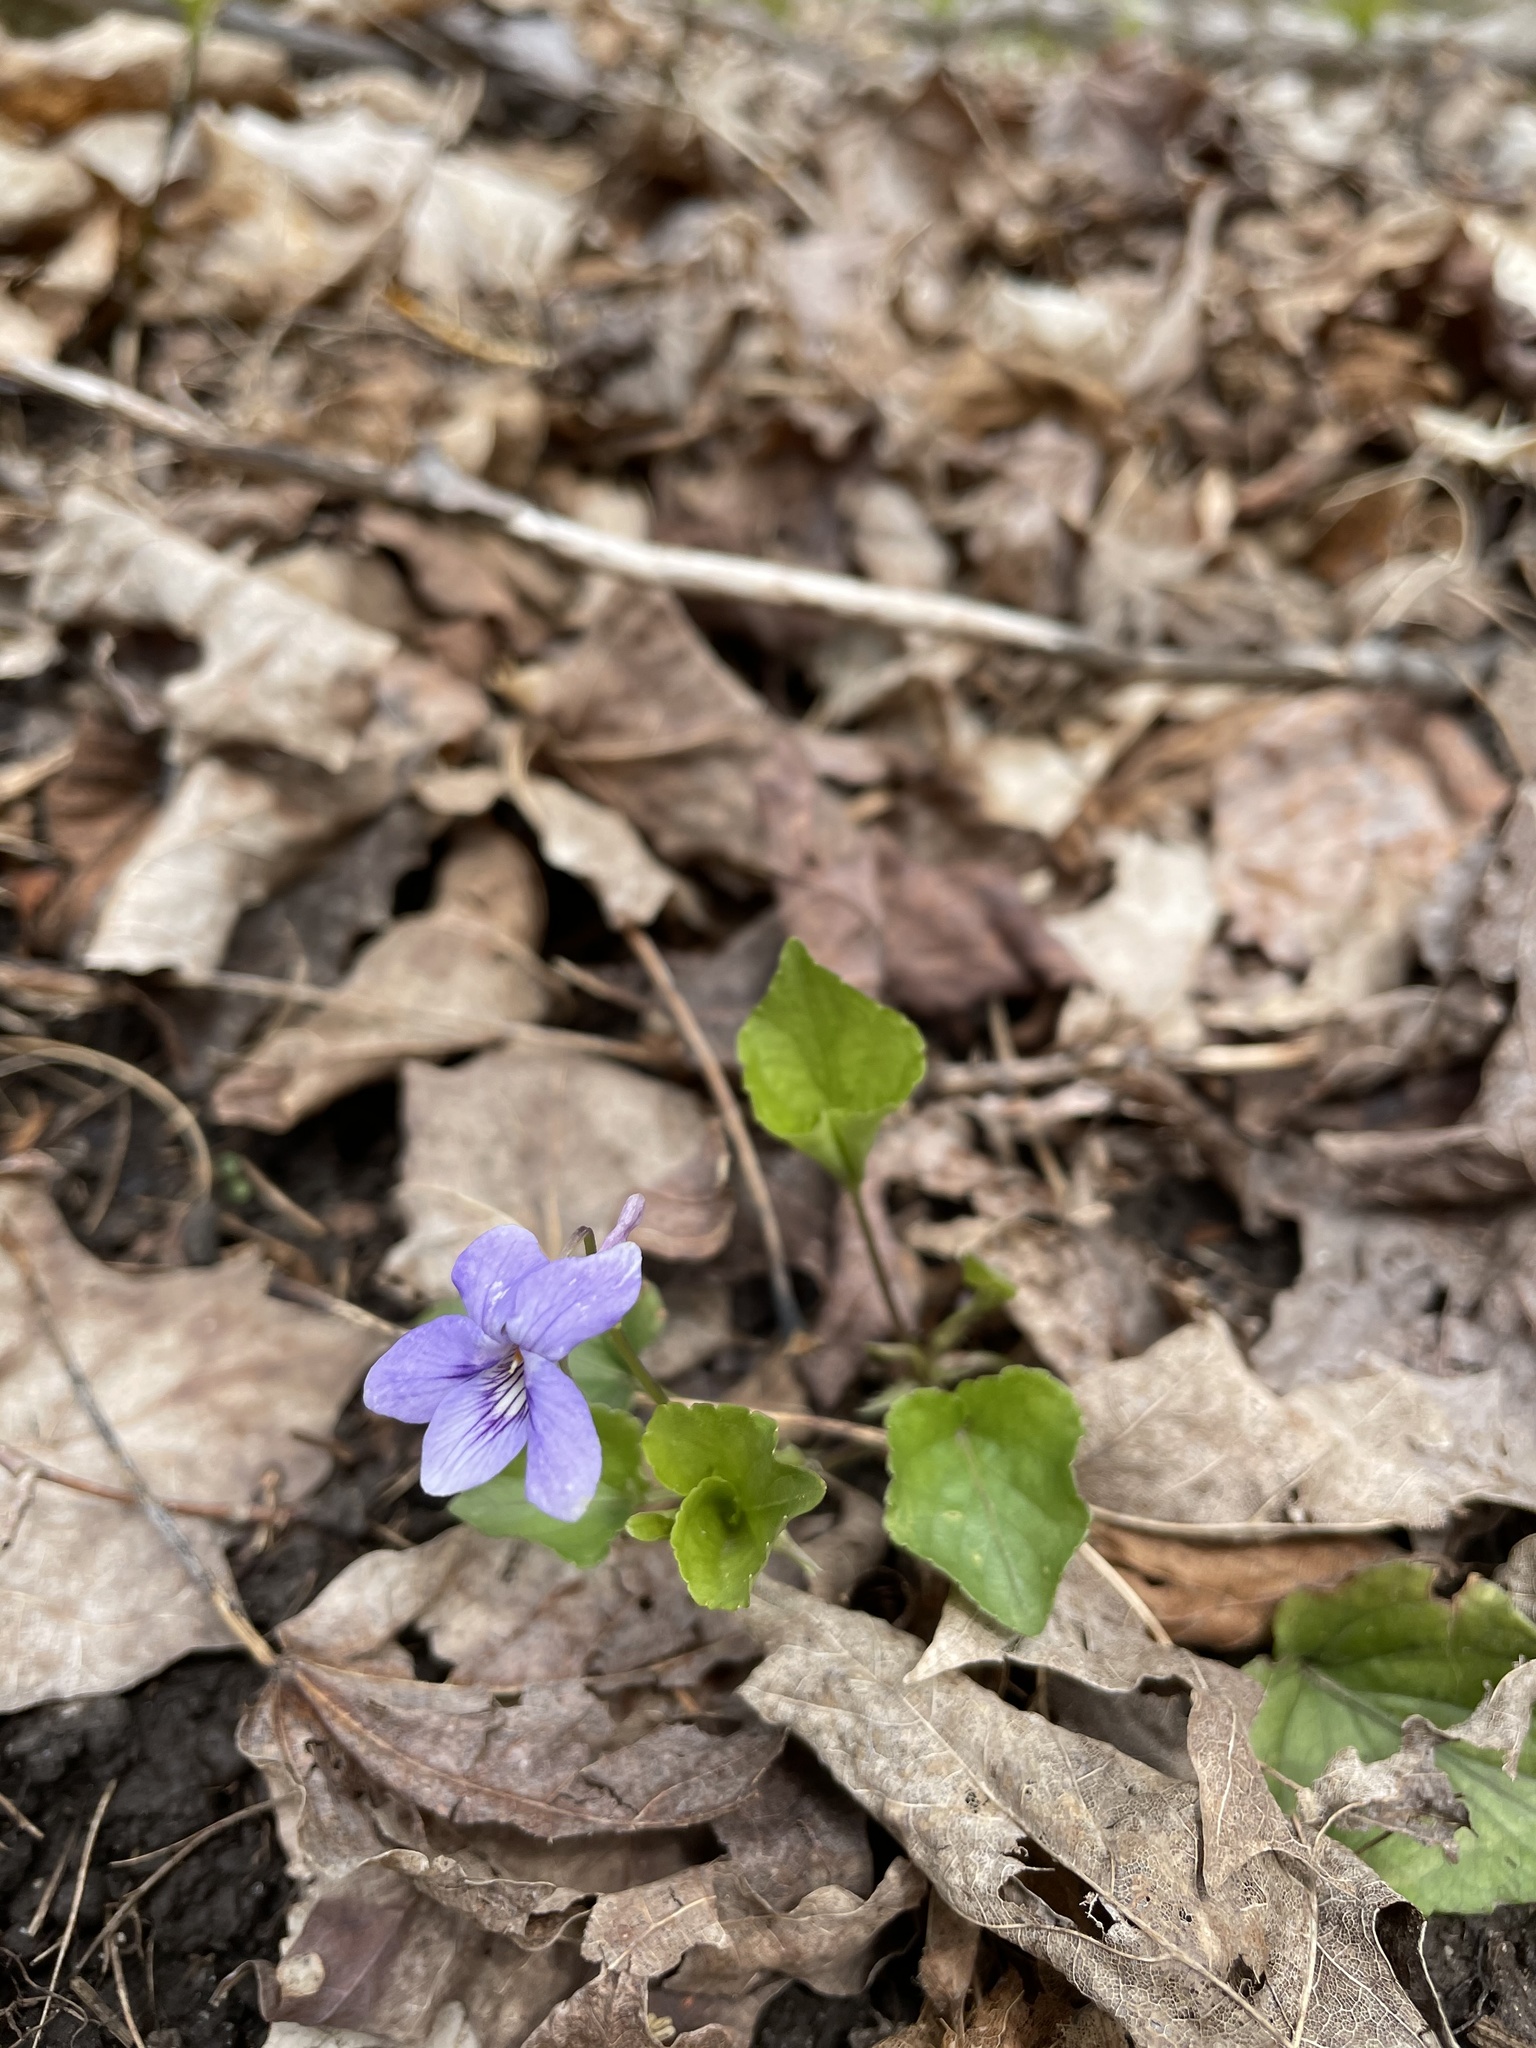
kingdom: Plantae
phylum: Tracheophyta
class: Magnoliopsida
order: Malpighiales
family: Violaceae
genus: Viola
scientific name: Viola rostrata
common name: Long-spur violet
